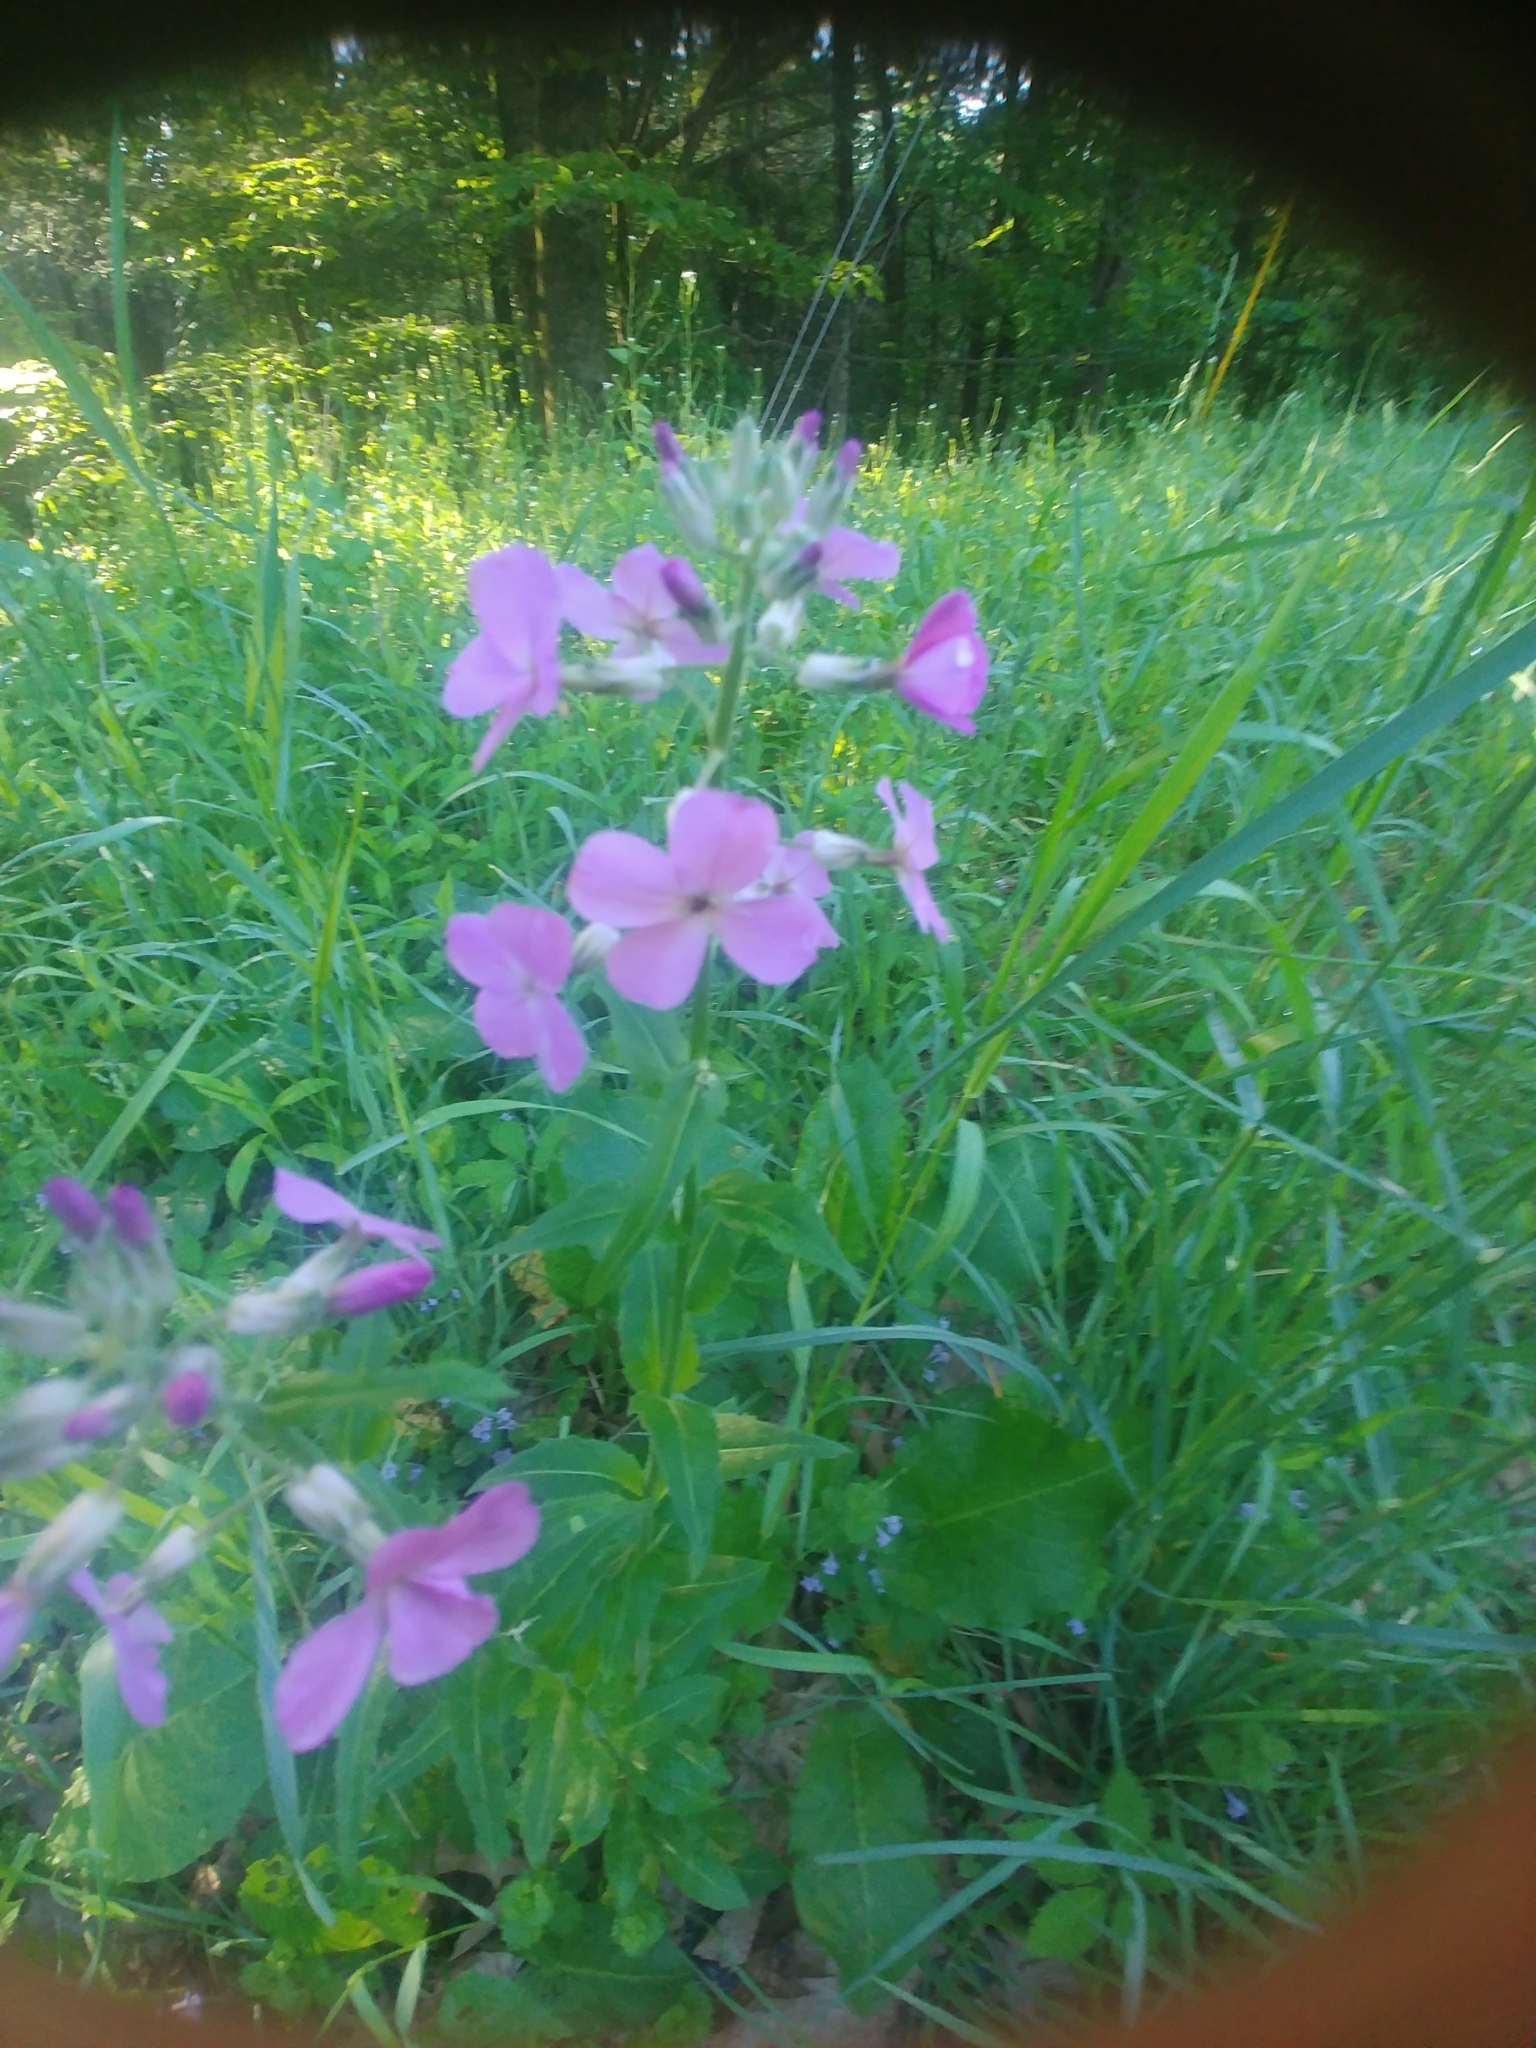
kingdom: Plantae
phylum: Tracheophyta
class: Magnoliopsida
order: Brassicales
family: Brassicaceae
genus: Hesperis
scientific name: Hesperis matronalis
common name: Dame's-violet
